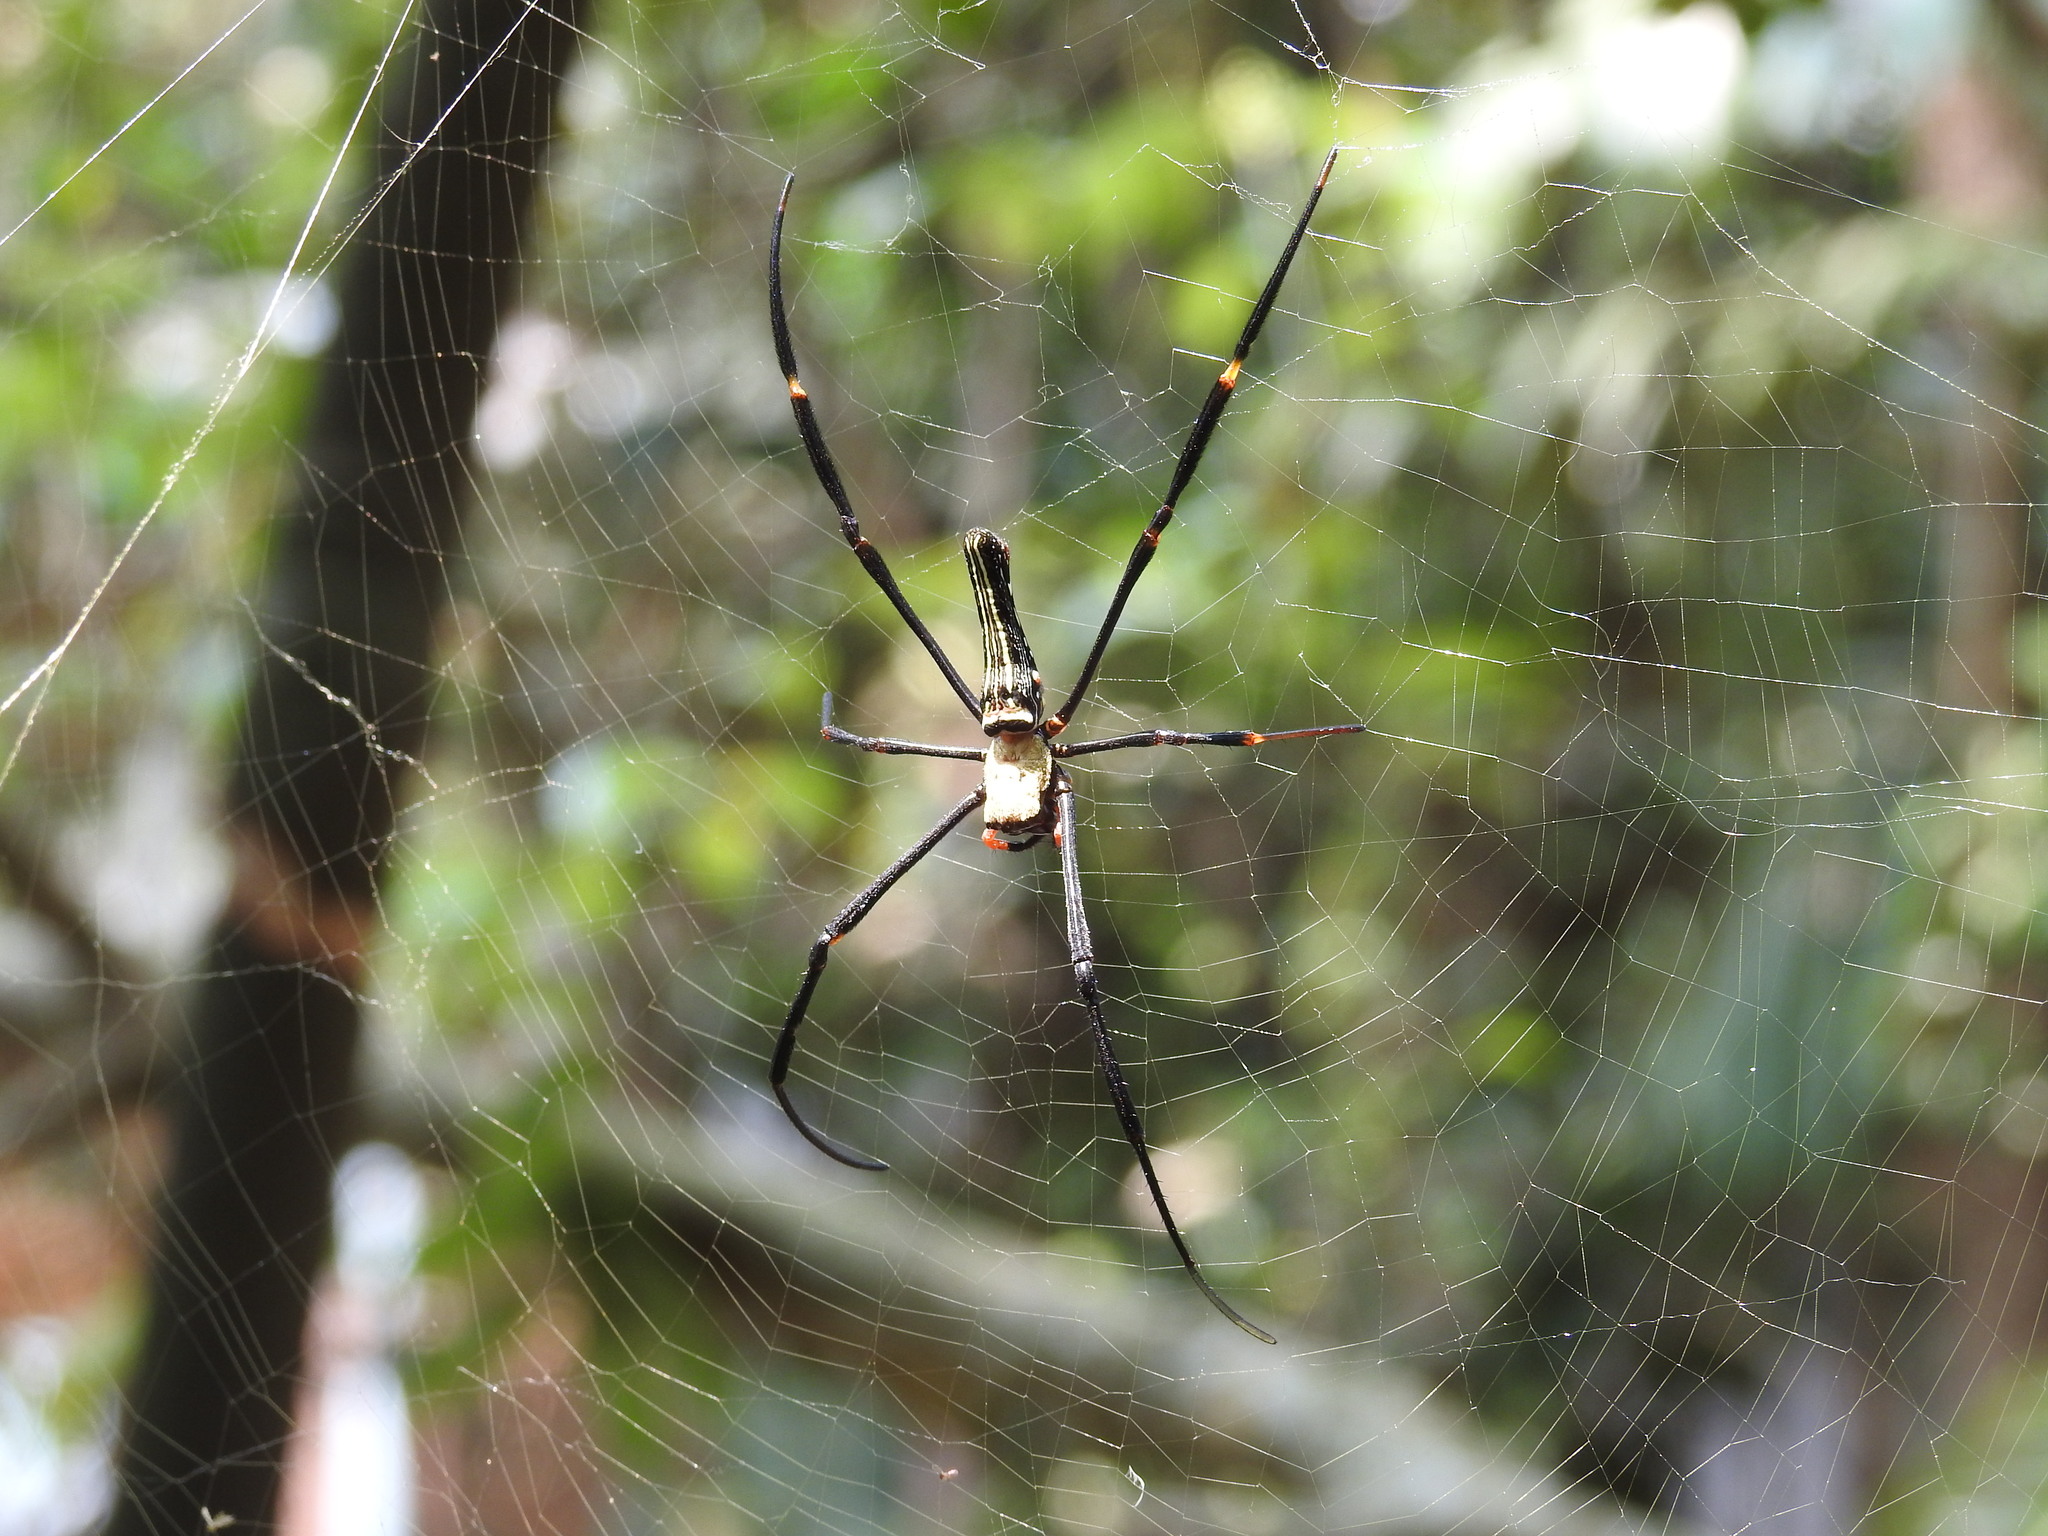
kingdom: Animalia
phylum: Arthropoda
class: Arachnida
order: Araneae
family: Araneidae
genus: Nephila
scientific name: Nephila pilipes
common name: Giant golden orb weaver
